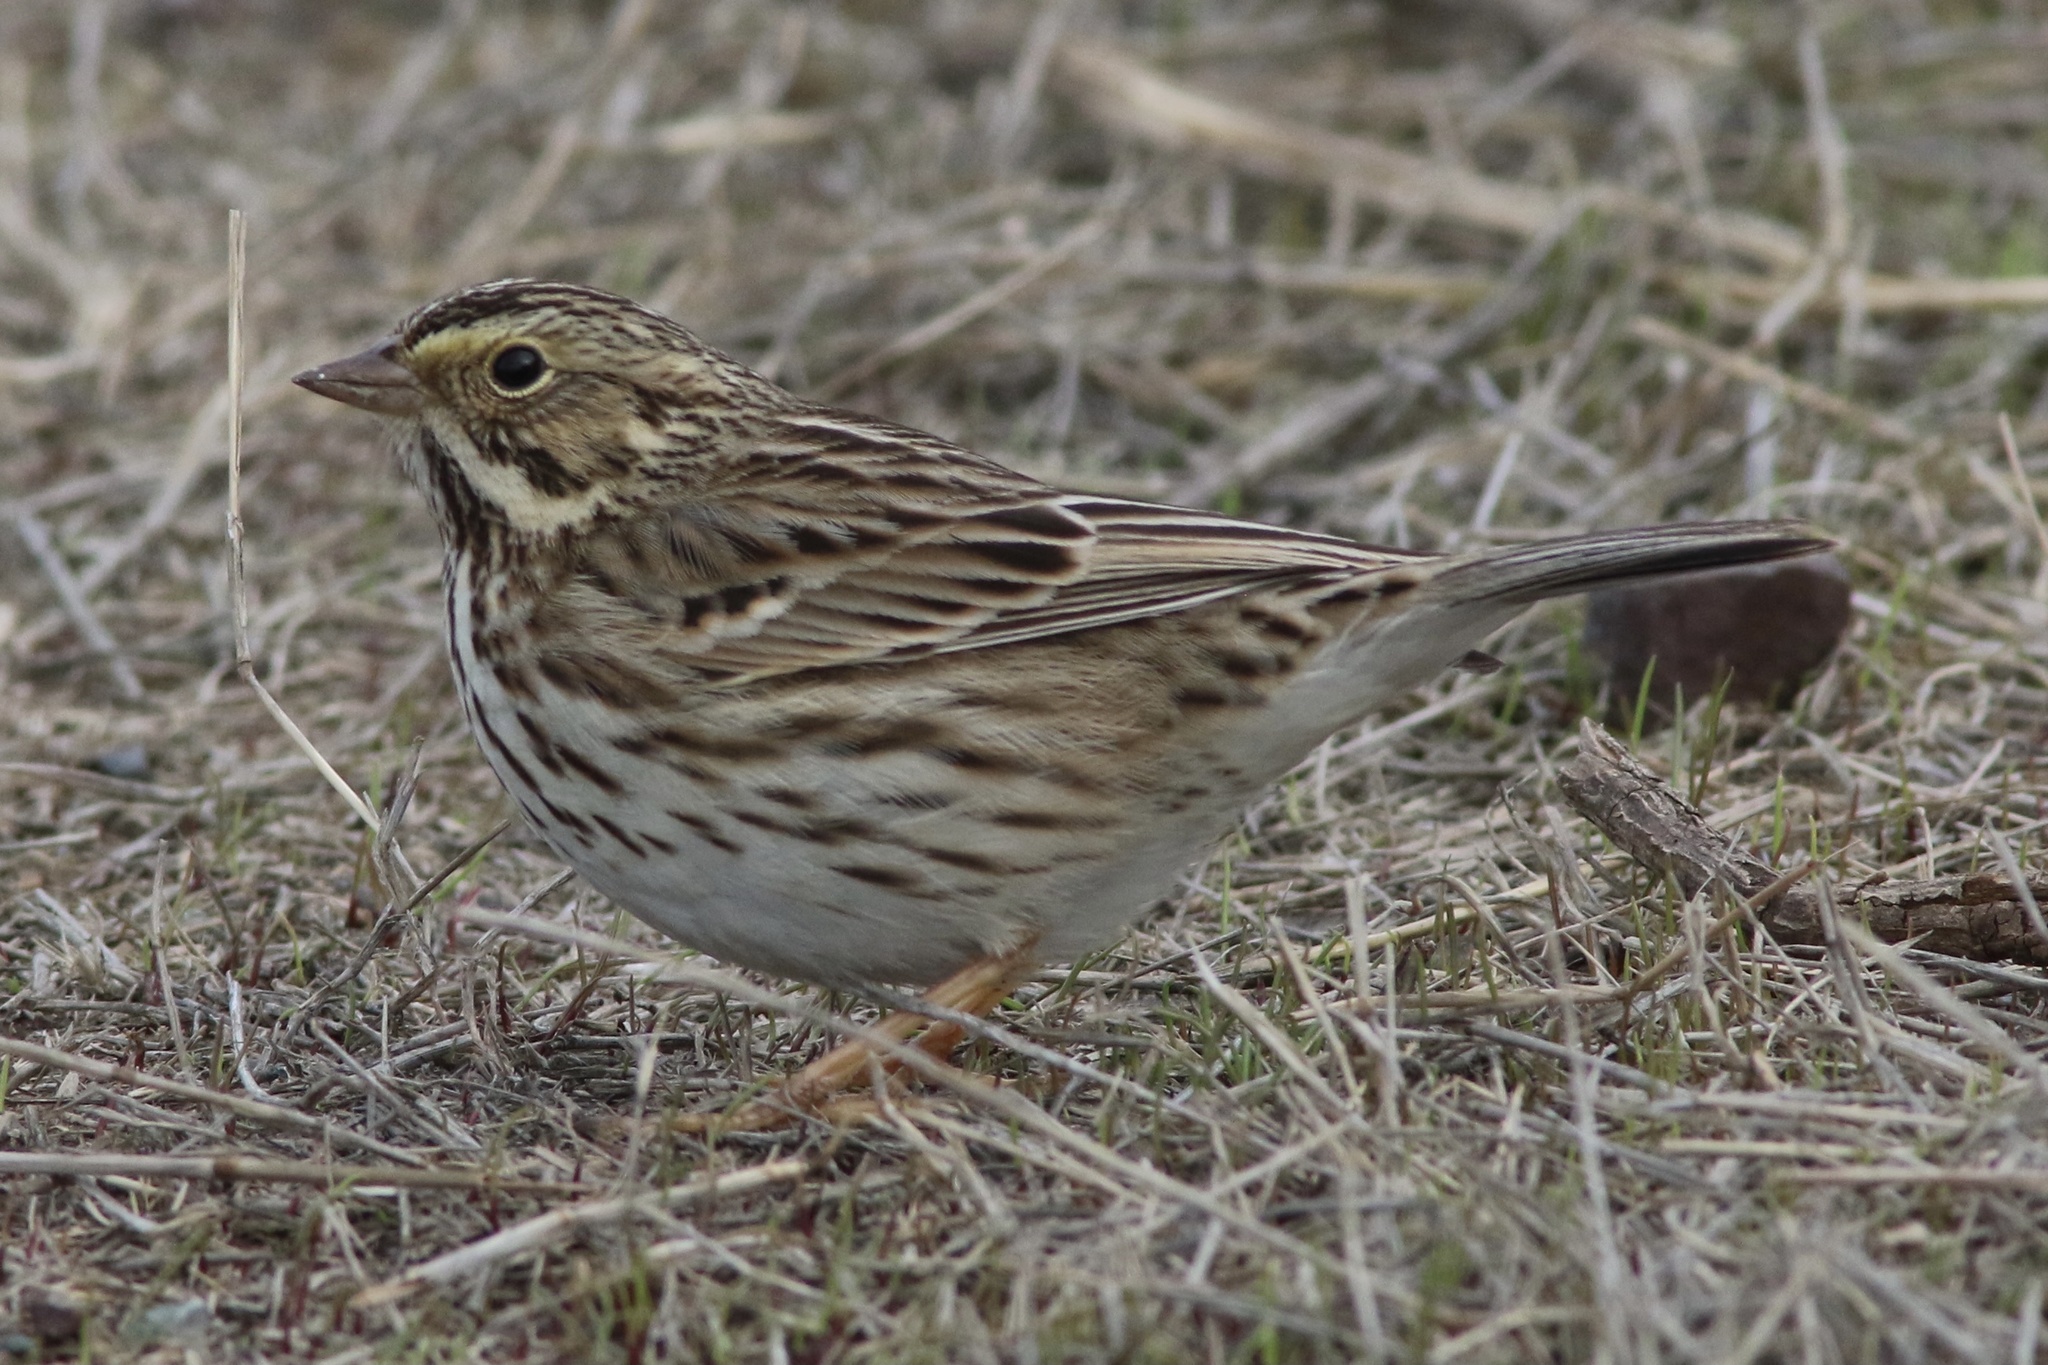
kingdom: Animalia
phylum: Chordata
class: Aves
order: Passeriformes
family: Passerellidae
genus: Passerculus
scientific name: Passerculus sandwichensis
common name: Savannah sparrow
